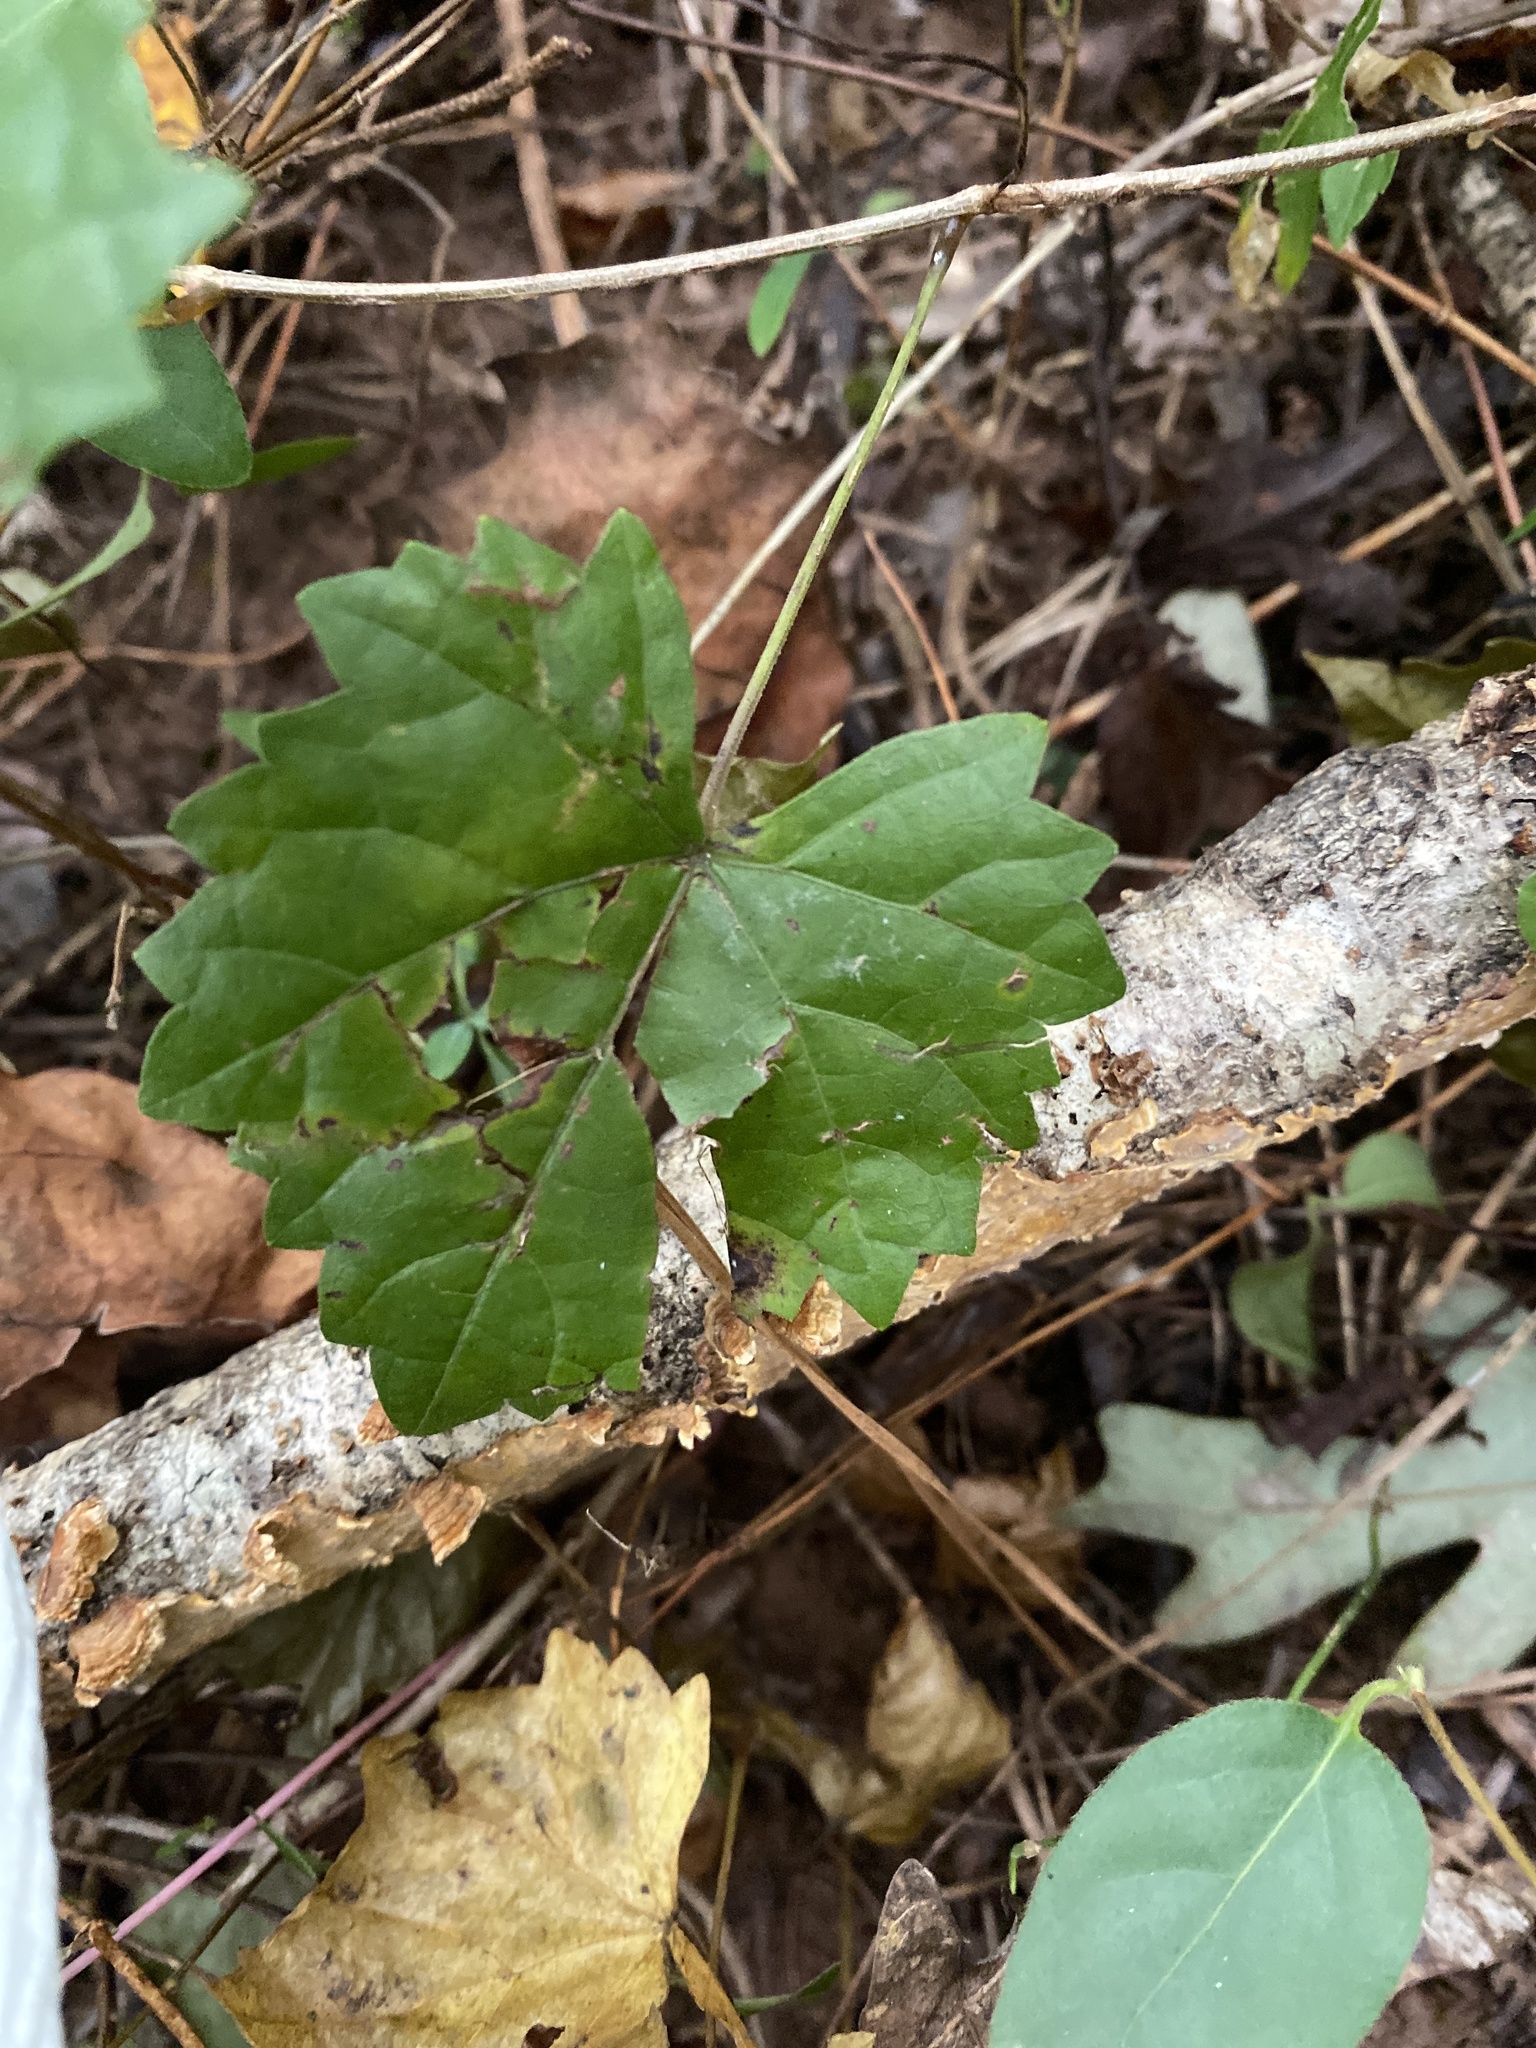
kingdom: Plantae
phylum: Tracheophyta
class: Magnoliopsida
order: Vitales
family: Vitaceae
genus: Vitis
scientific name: Vitis rotundifolia
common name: Muscadine grape
